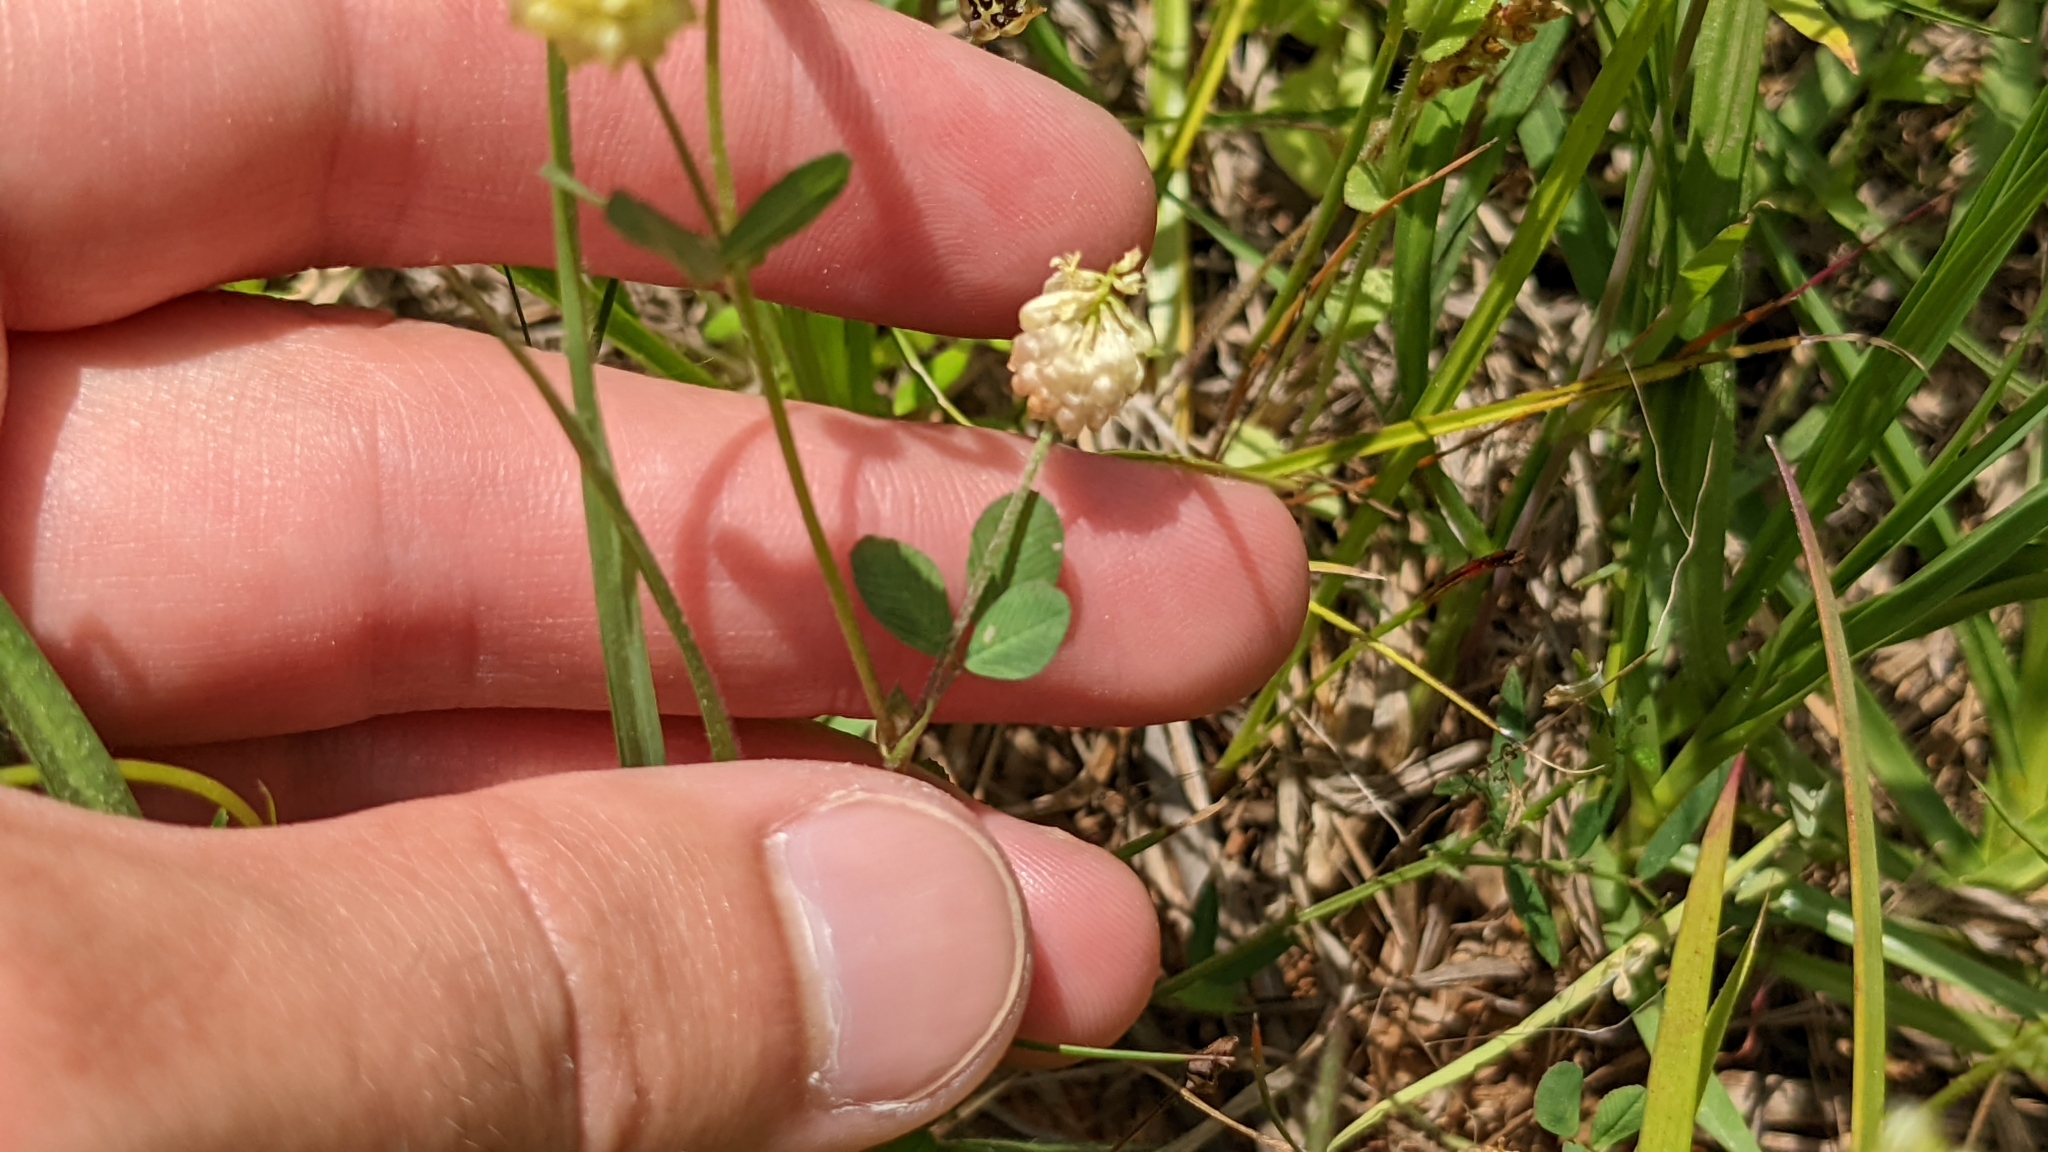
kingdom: Plantae
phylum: Tracheophyta
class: Magnoliopsida
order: Fabales
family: Fabaceae
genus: Trifolium
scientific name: Trifolium campestre
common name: Field clover
